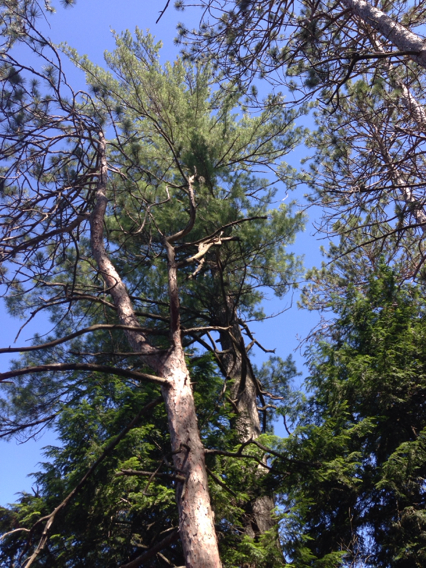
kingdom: Plantae
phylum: Tracheophyta
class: Pinopsida
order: Pinales
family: Pinaceae
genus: Pinus
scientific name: Pinus strobus
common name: Weymouth pine
